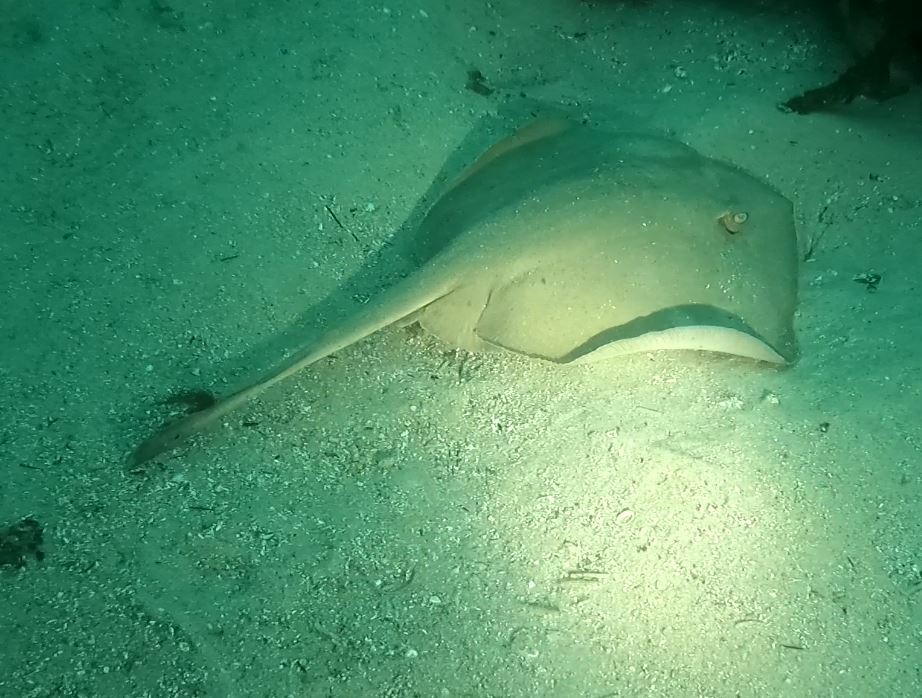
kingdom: Animalia
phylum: Chordata
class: Elasmobranchii
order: Myliobatiformes
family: Urolophidae
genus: Trygonoptera
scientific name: Trygonoptera testacea
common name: Common stingaree
